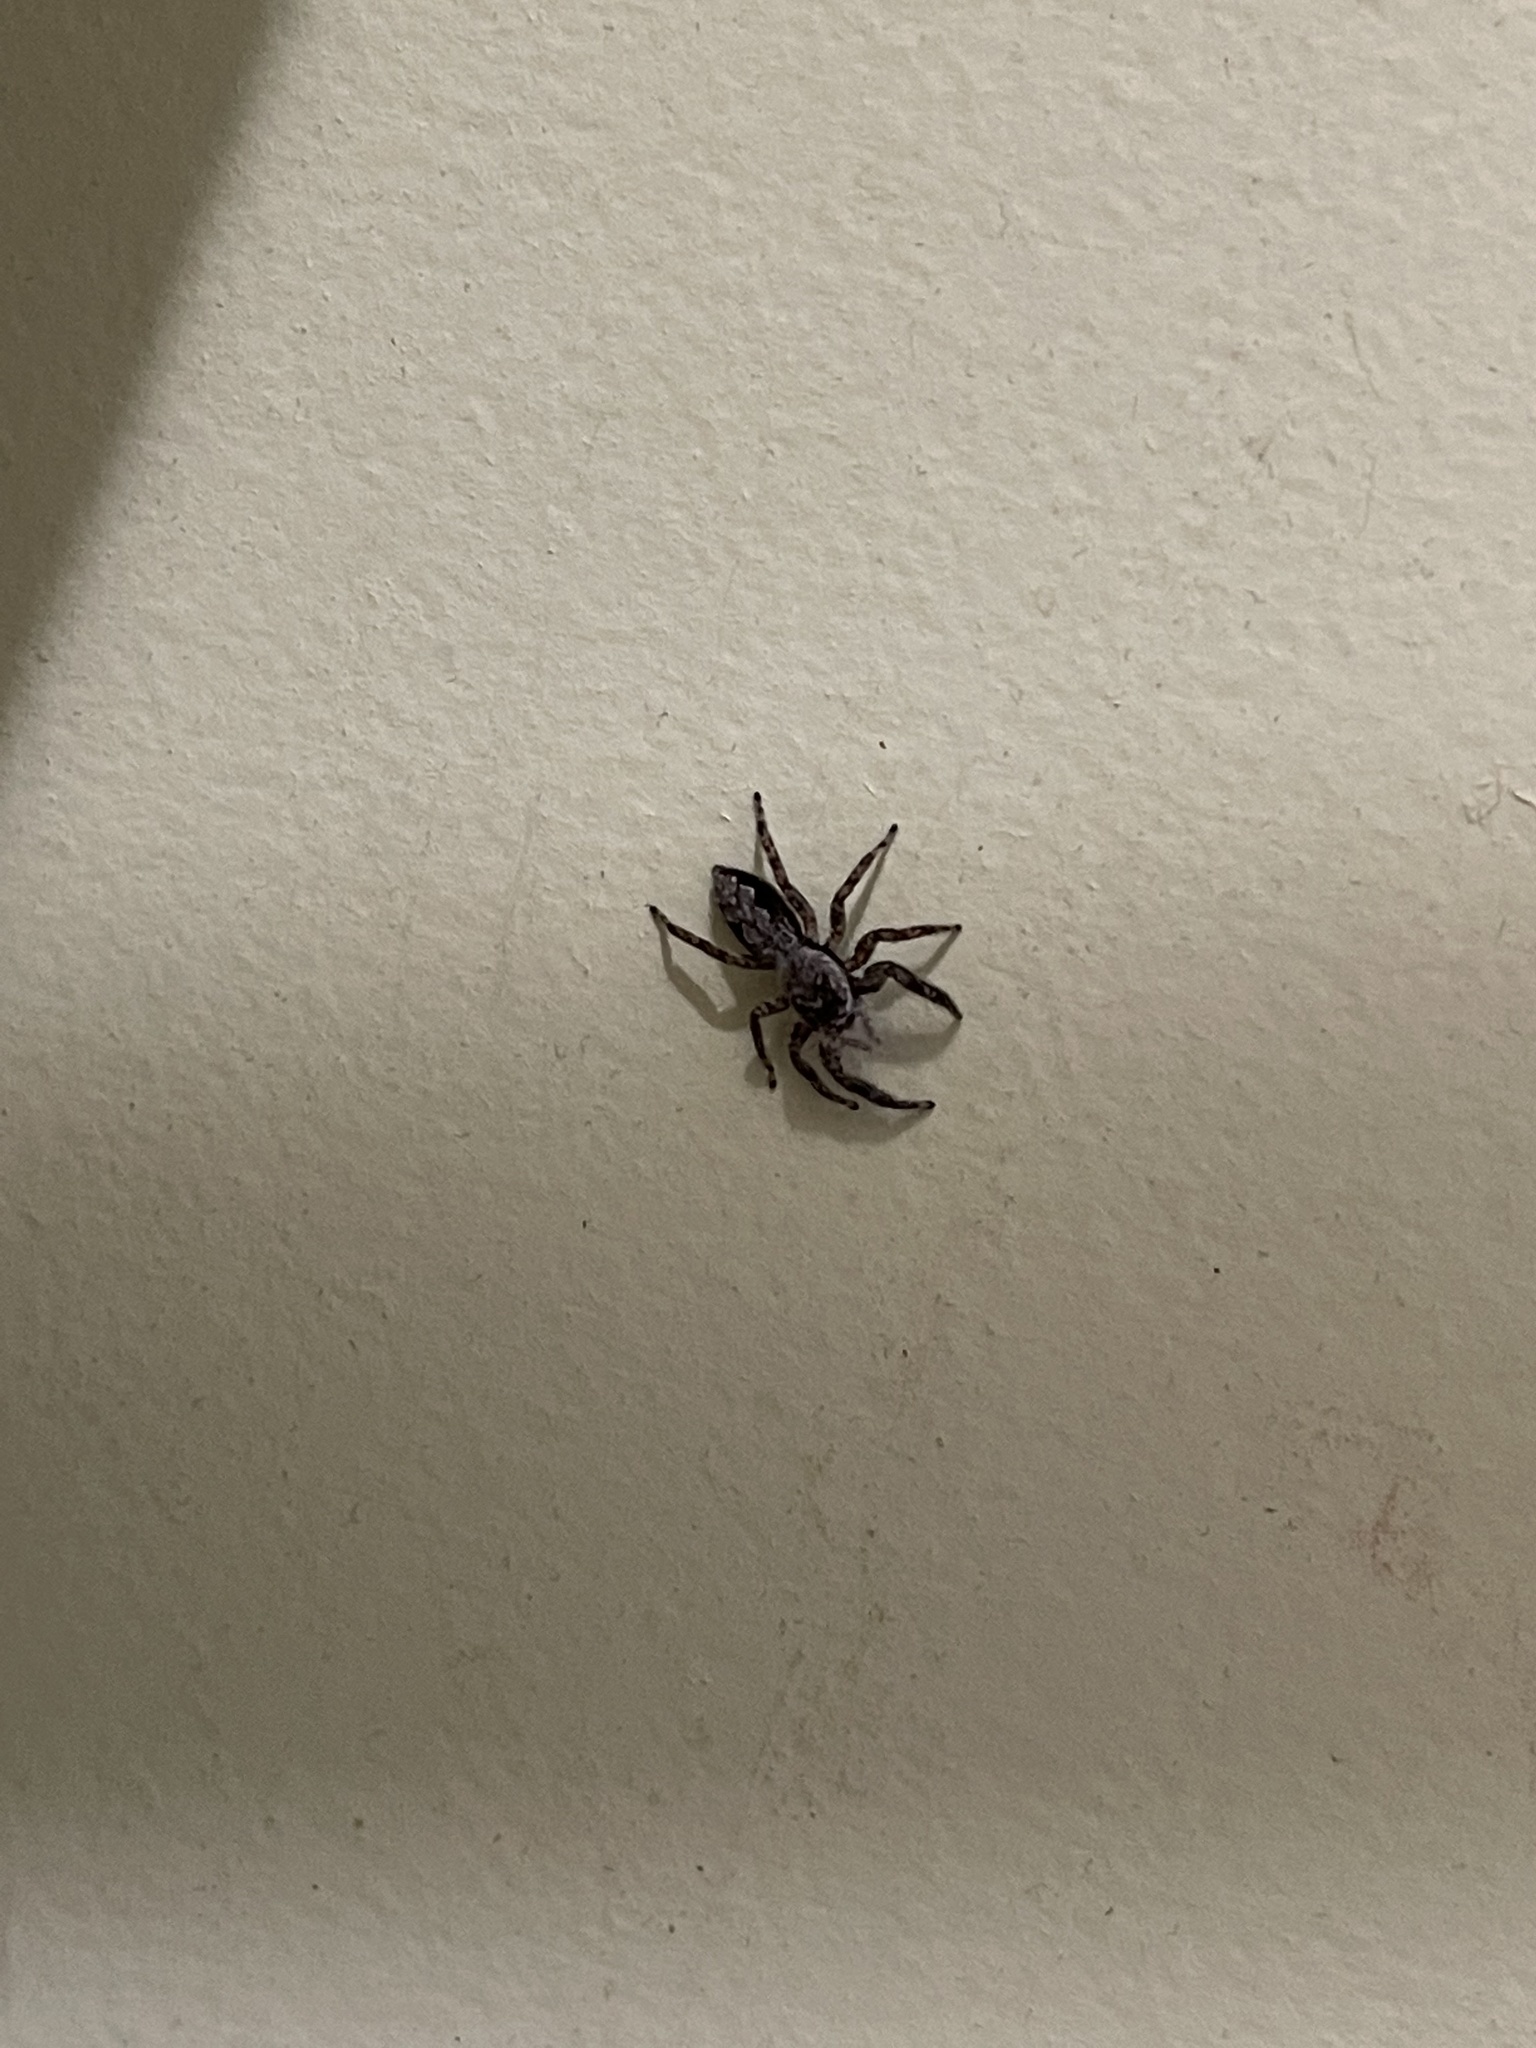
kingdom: Animalia
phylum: Arthropoda
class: Arachnida
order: Araneae
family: Salticidae
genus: Platycryptus
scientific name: Platycryptus undatus
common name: Tan jumping spider
